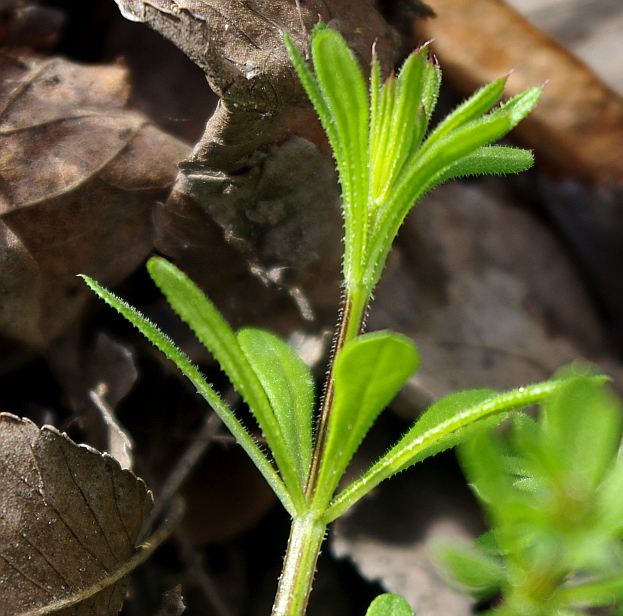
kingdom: Plantae
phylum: Tracheophyta
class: Magnoliopsida
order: Gentianales
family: Rubiaceae
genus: Galium
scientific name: Galium aparine
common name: Cleavers
